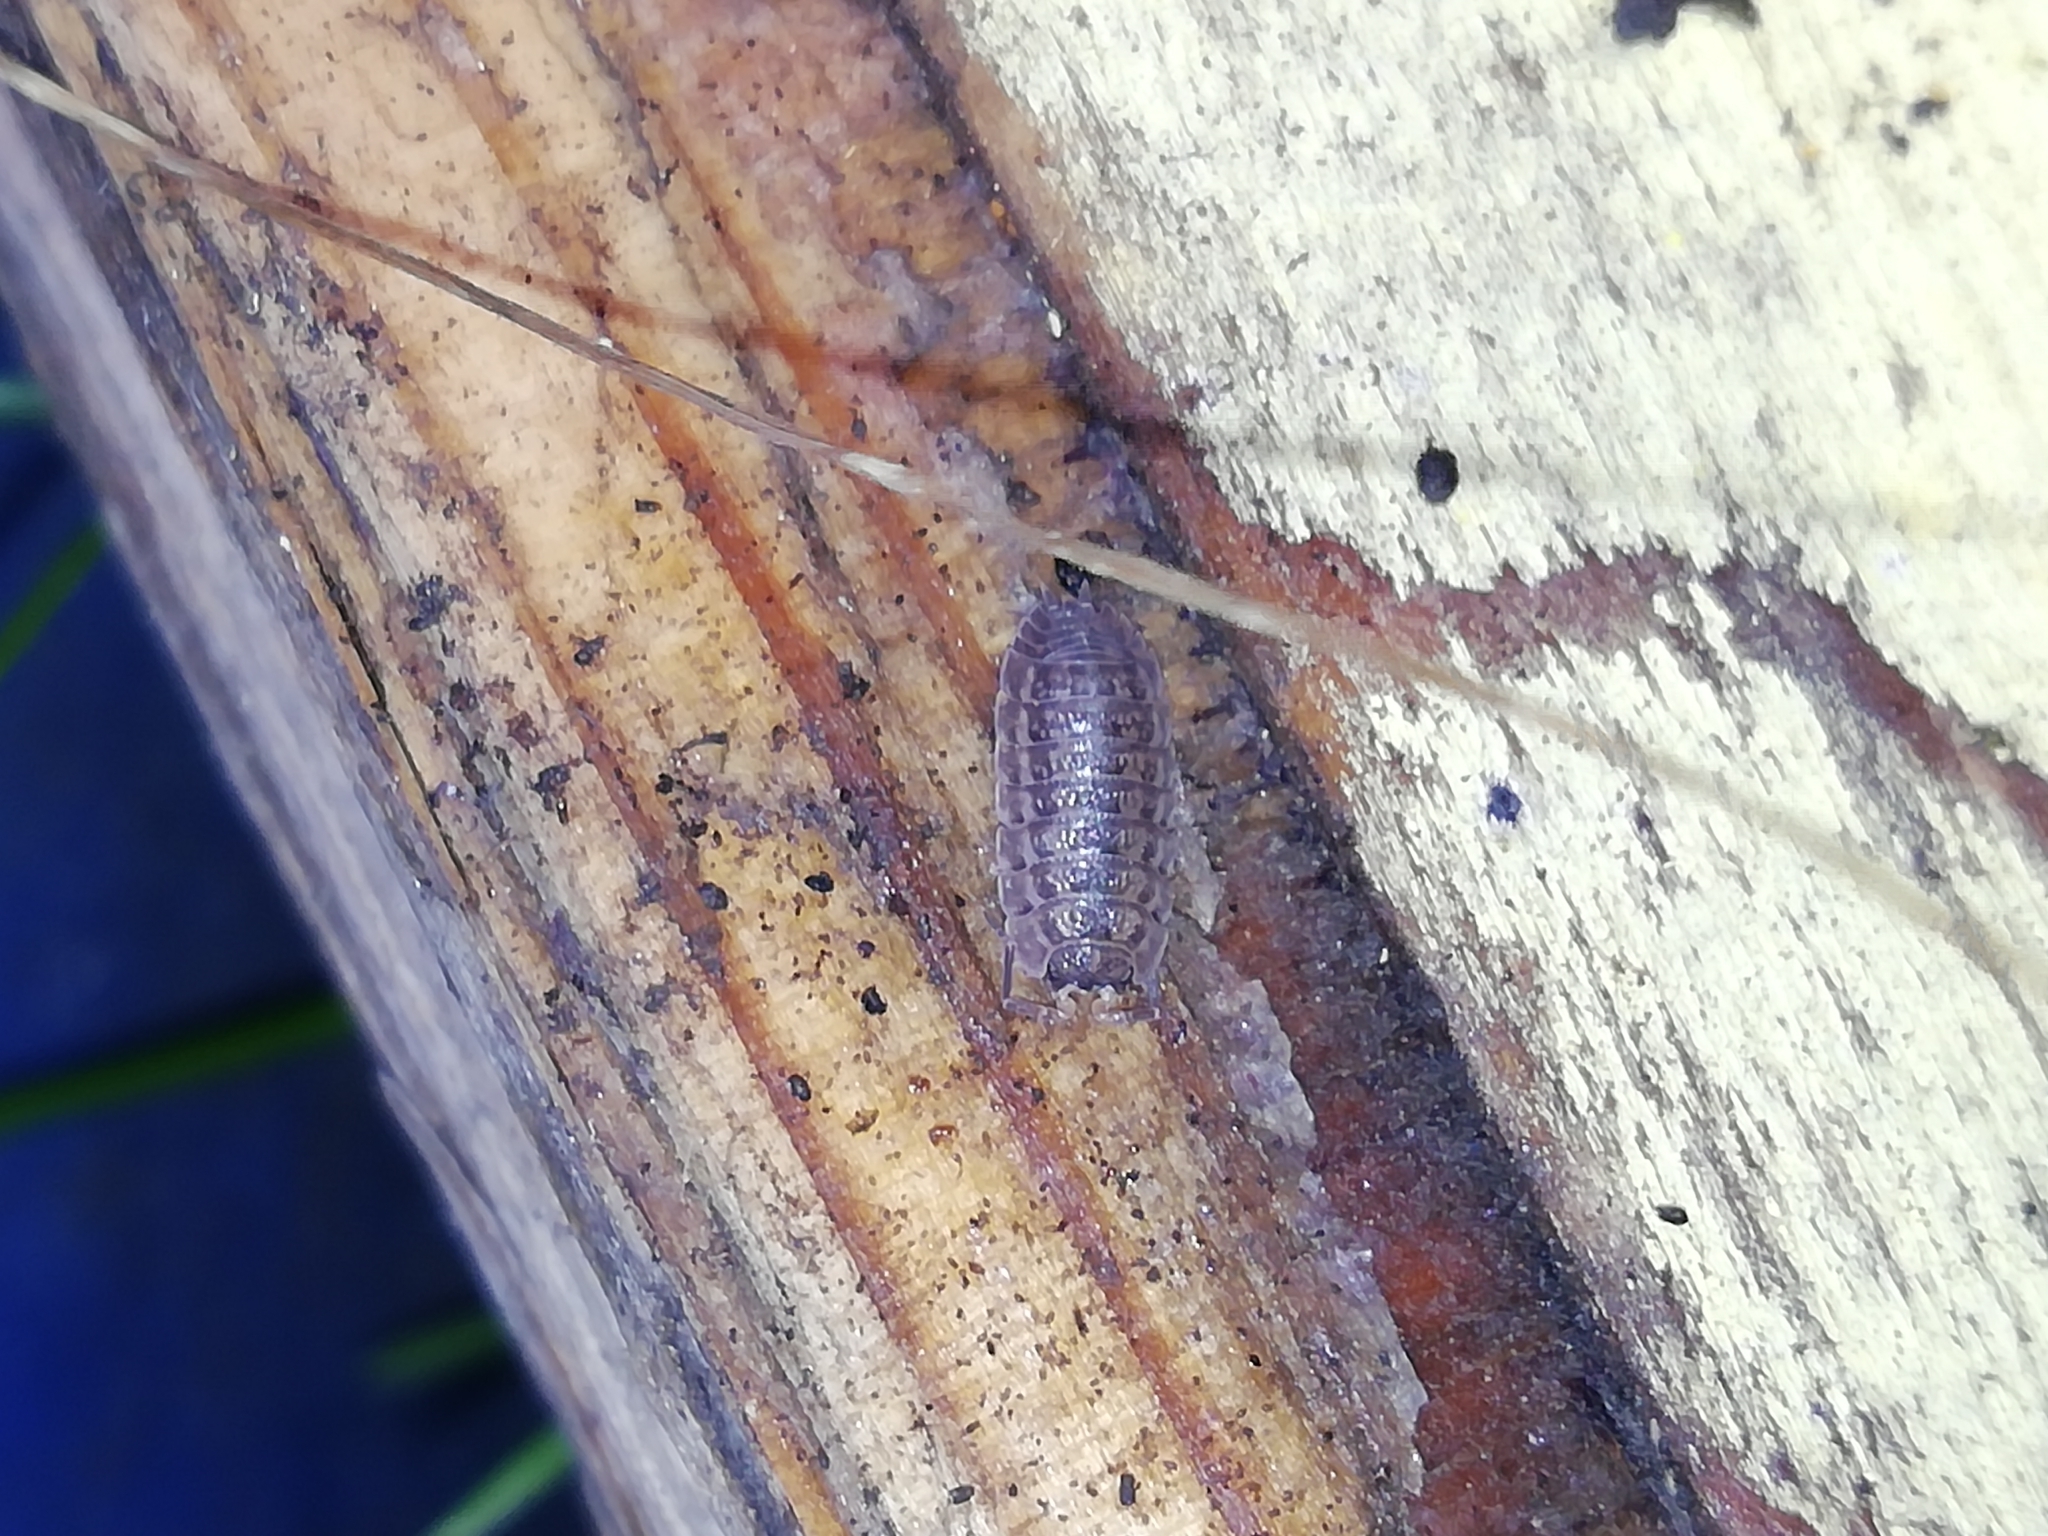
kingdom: Animalia
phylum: Arthropoda
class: Malacostraca
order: Isopoda
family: Trachelipodidae
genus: Trachelipus
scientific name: Trachelipus rathkii
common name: Isopod
